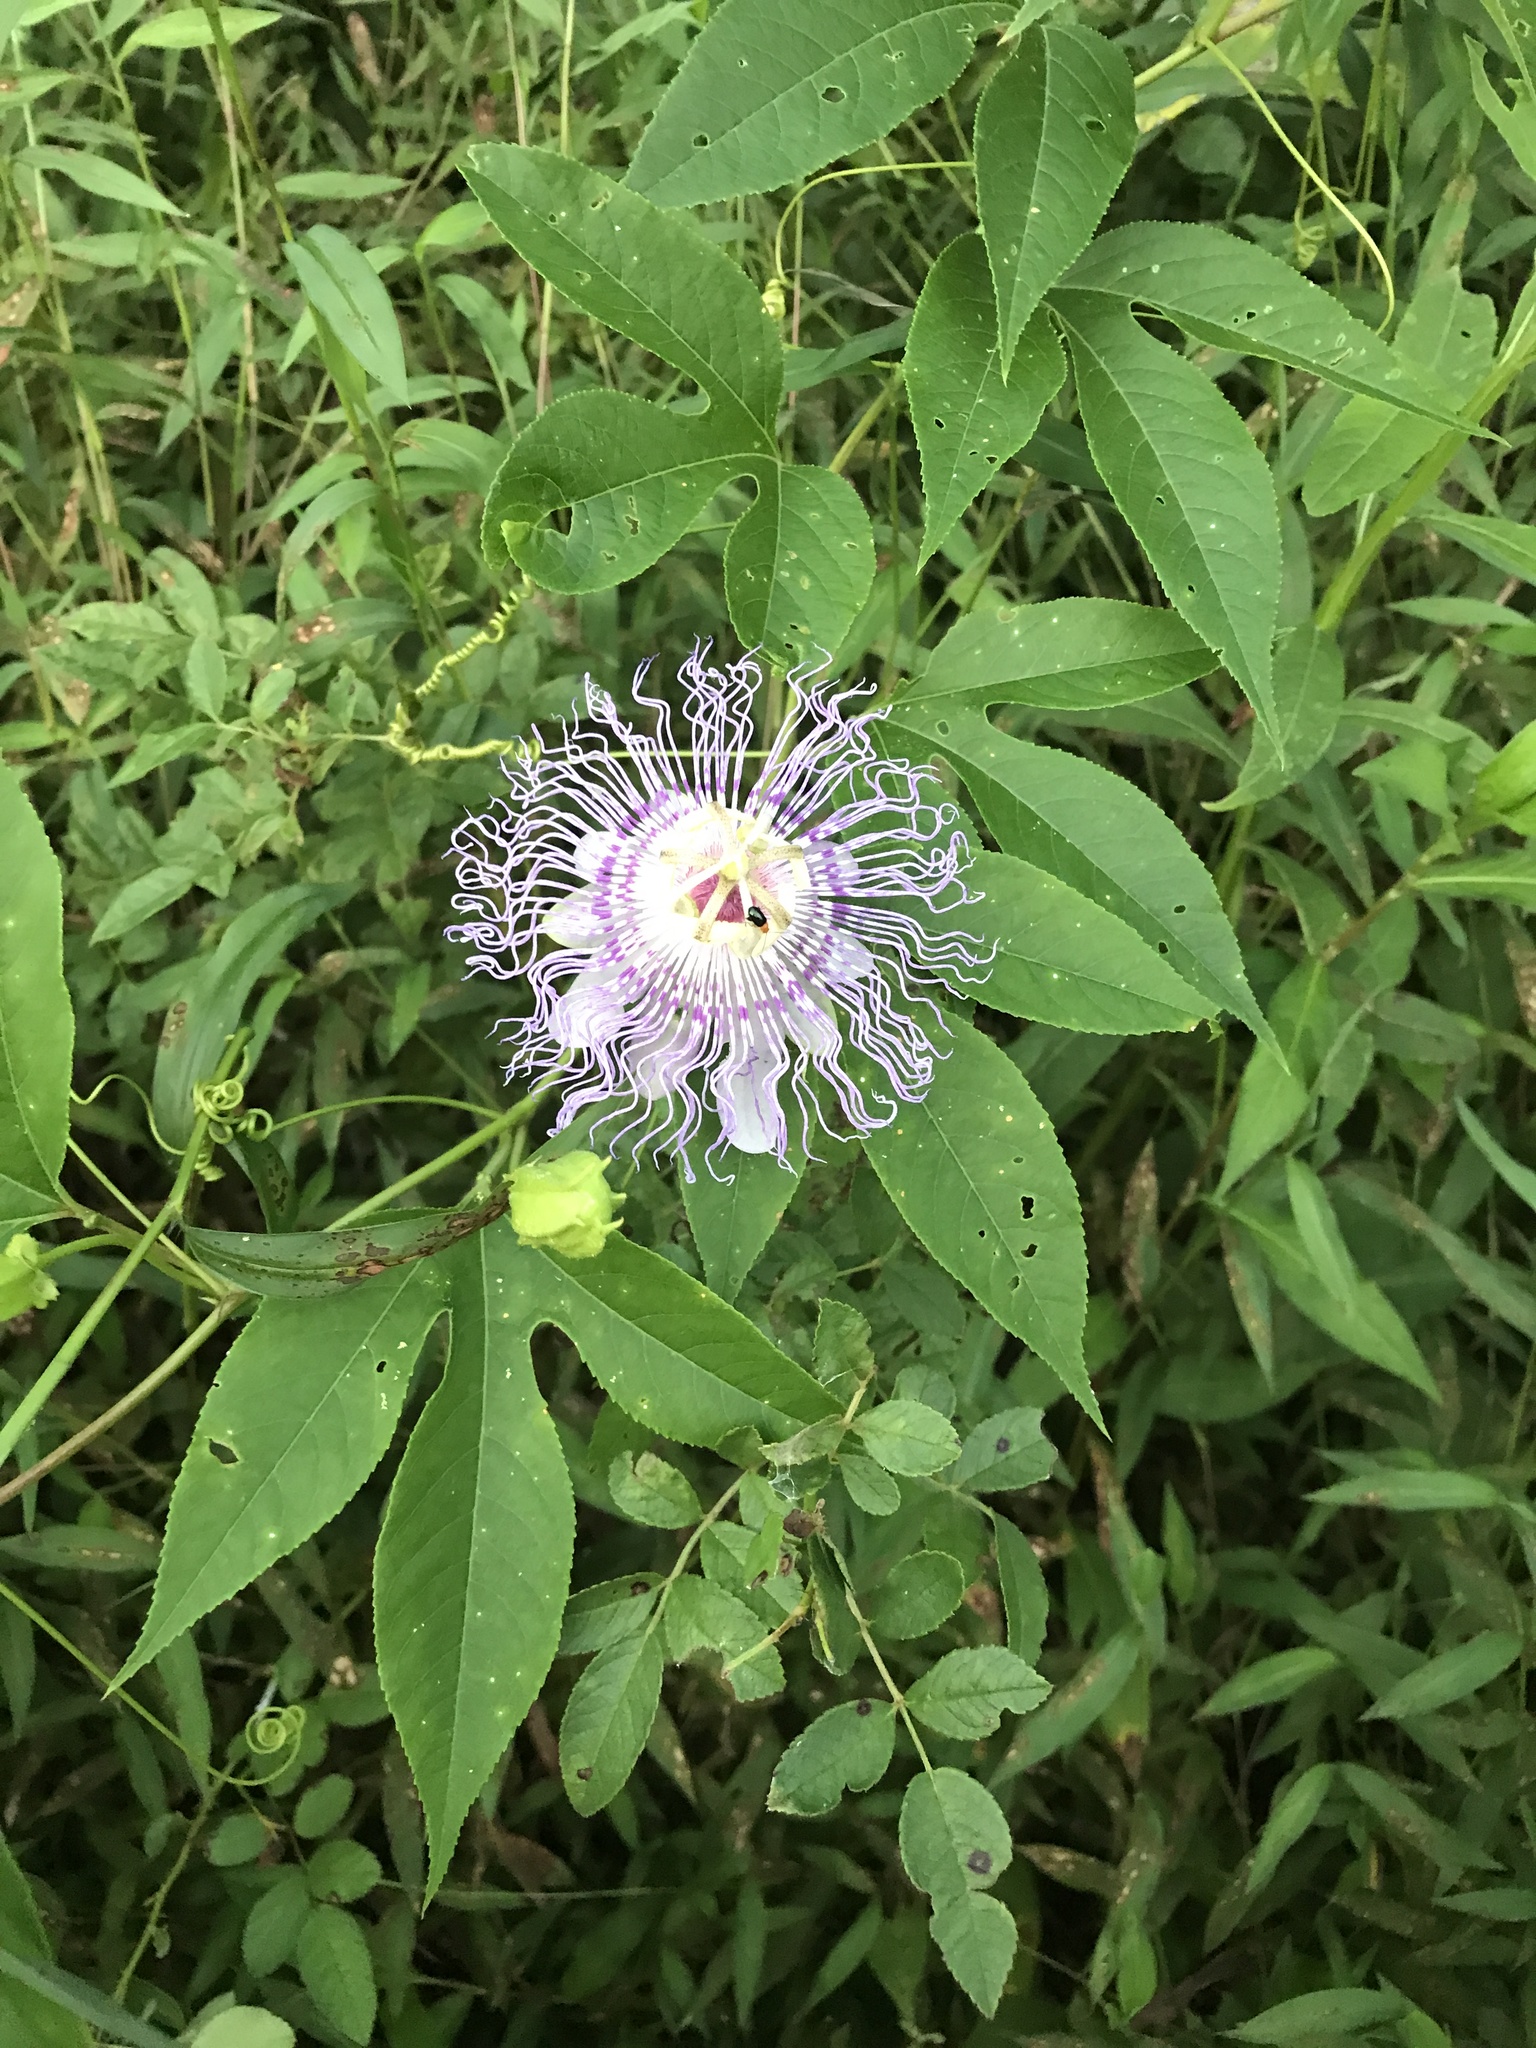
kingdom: Plantae
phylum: Tracheophyta
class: Magnoliopsida
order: Malpighiales
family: Passifloraceae
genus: Passiflora
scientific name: Passiflora incarnata
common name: Apricot-vine
